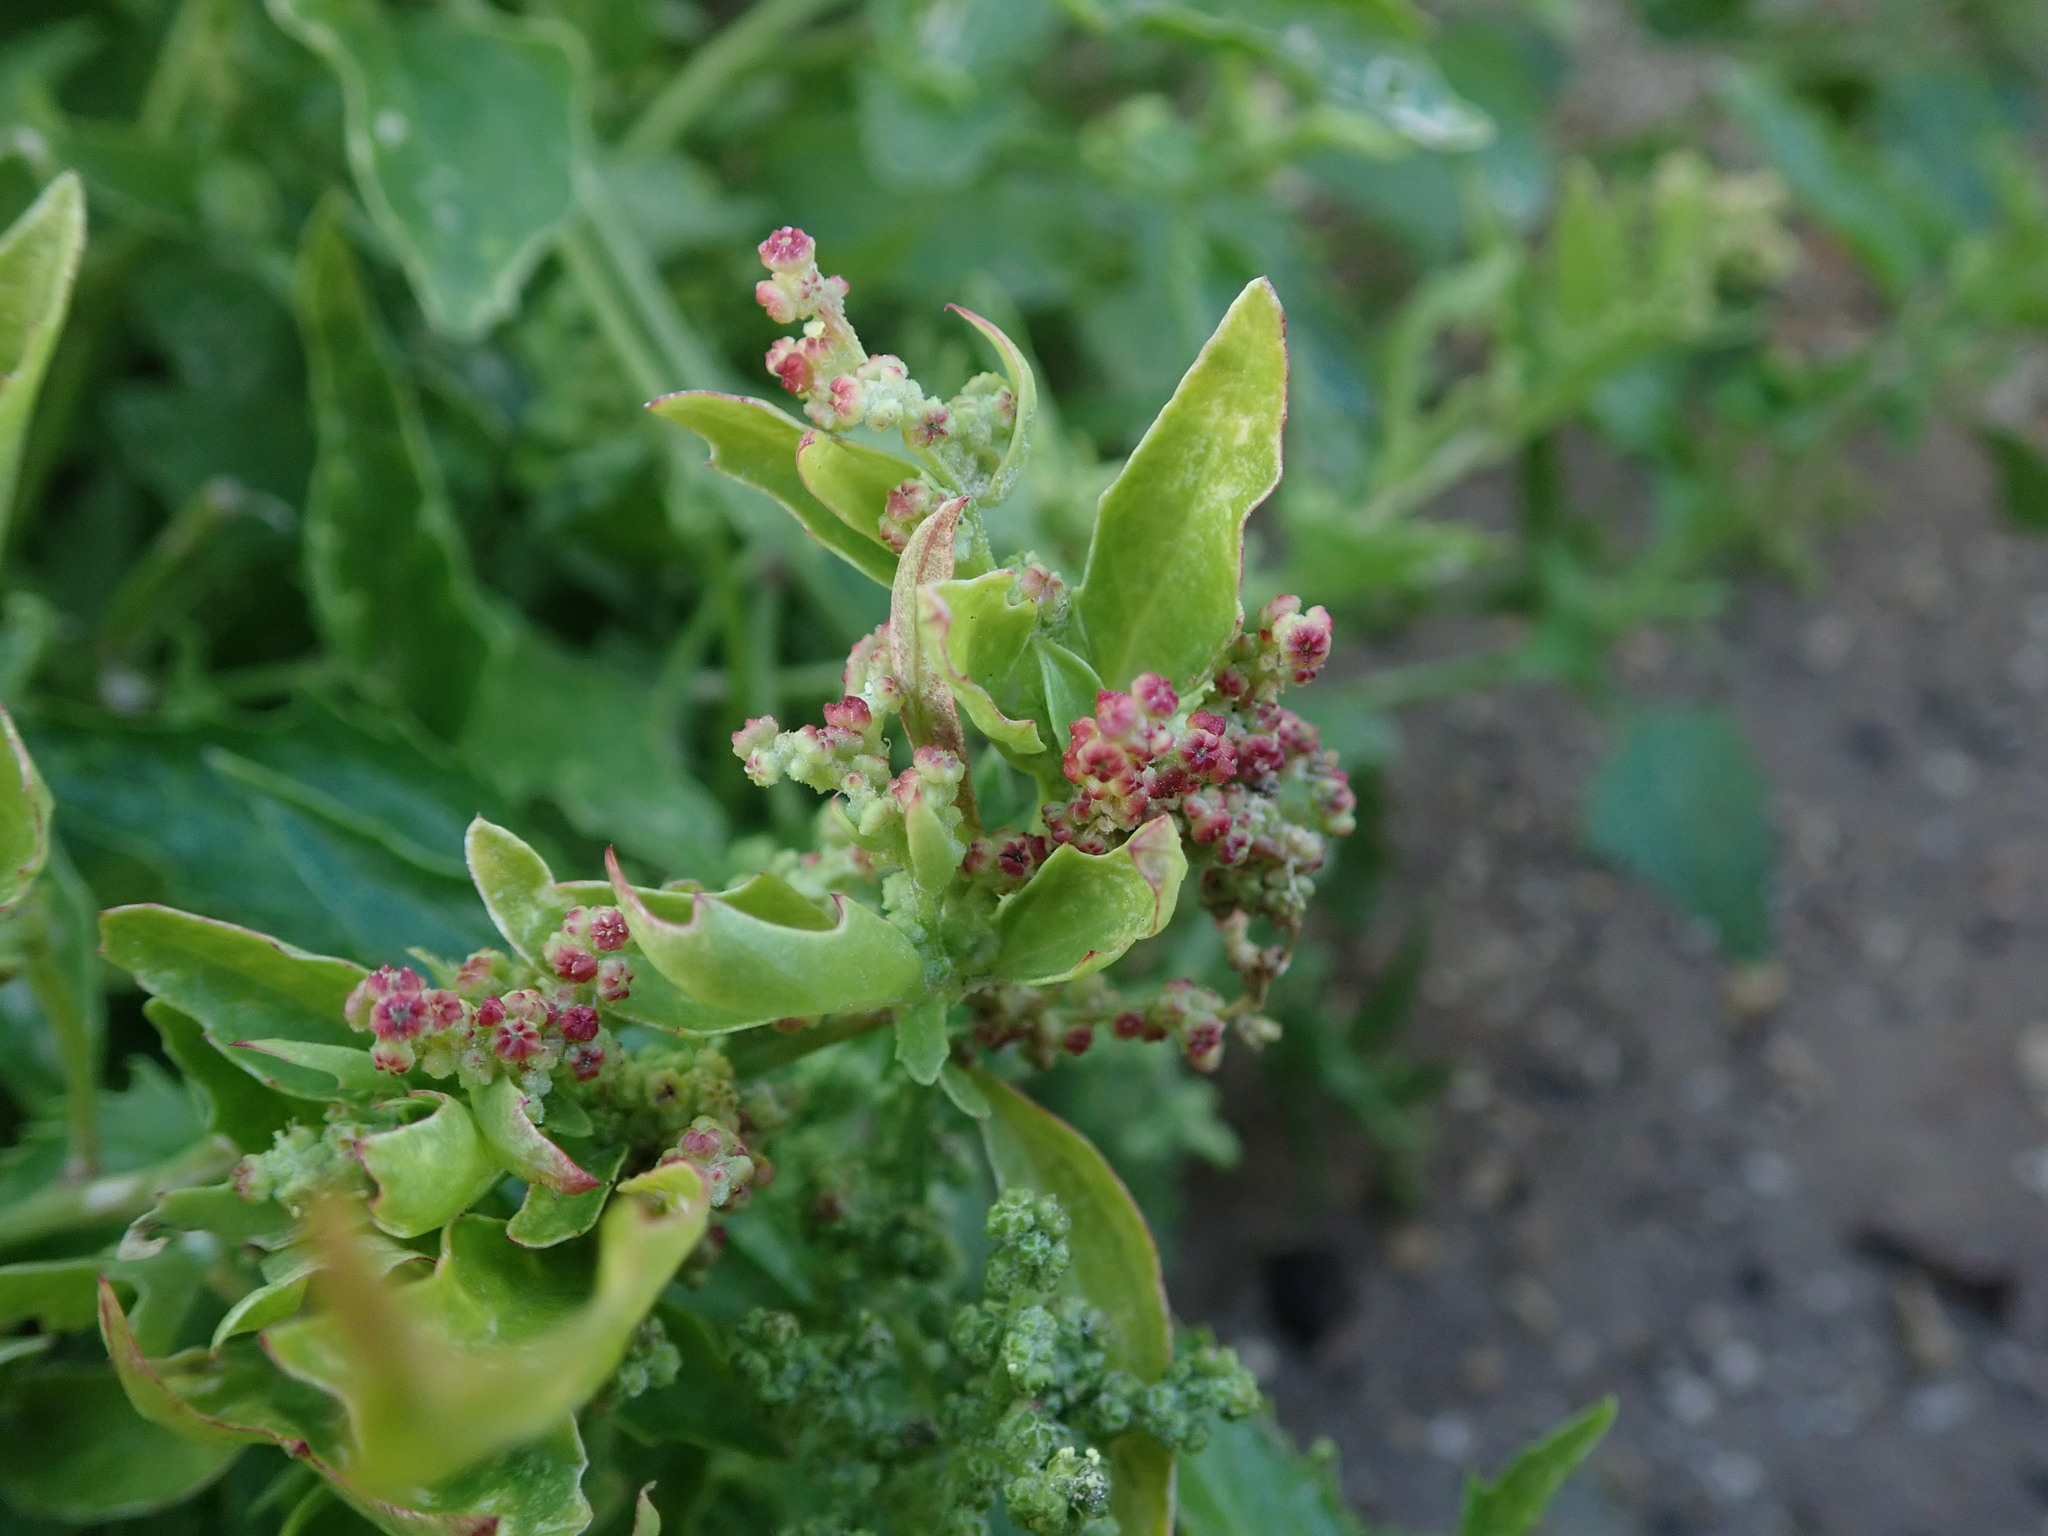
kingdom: Plantae
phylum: Tracheophyta
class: Magnoliopsida
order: Caryophyllales
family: Amaranthaceae
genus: Chenopodiastrum
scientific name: Chenopodiastrum murale
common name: Sowbane
